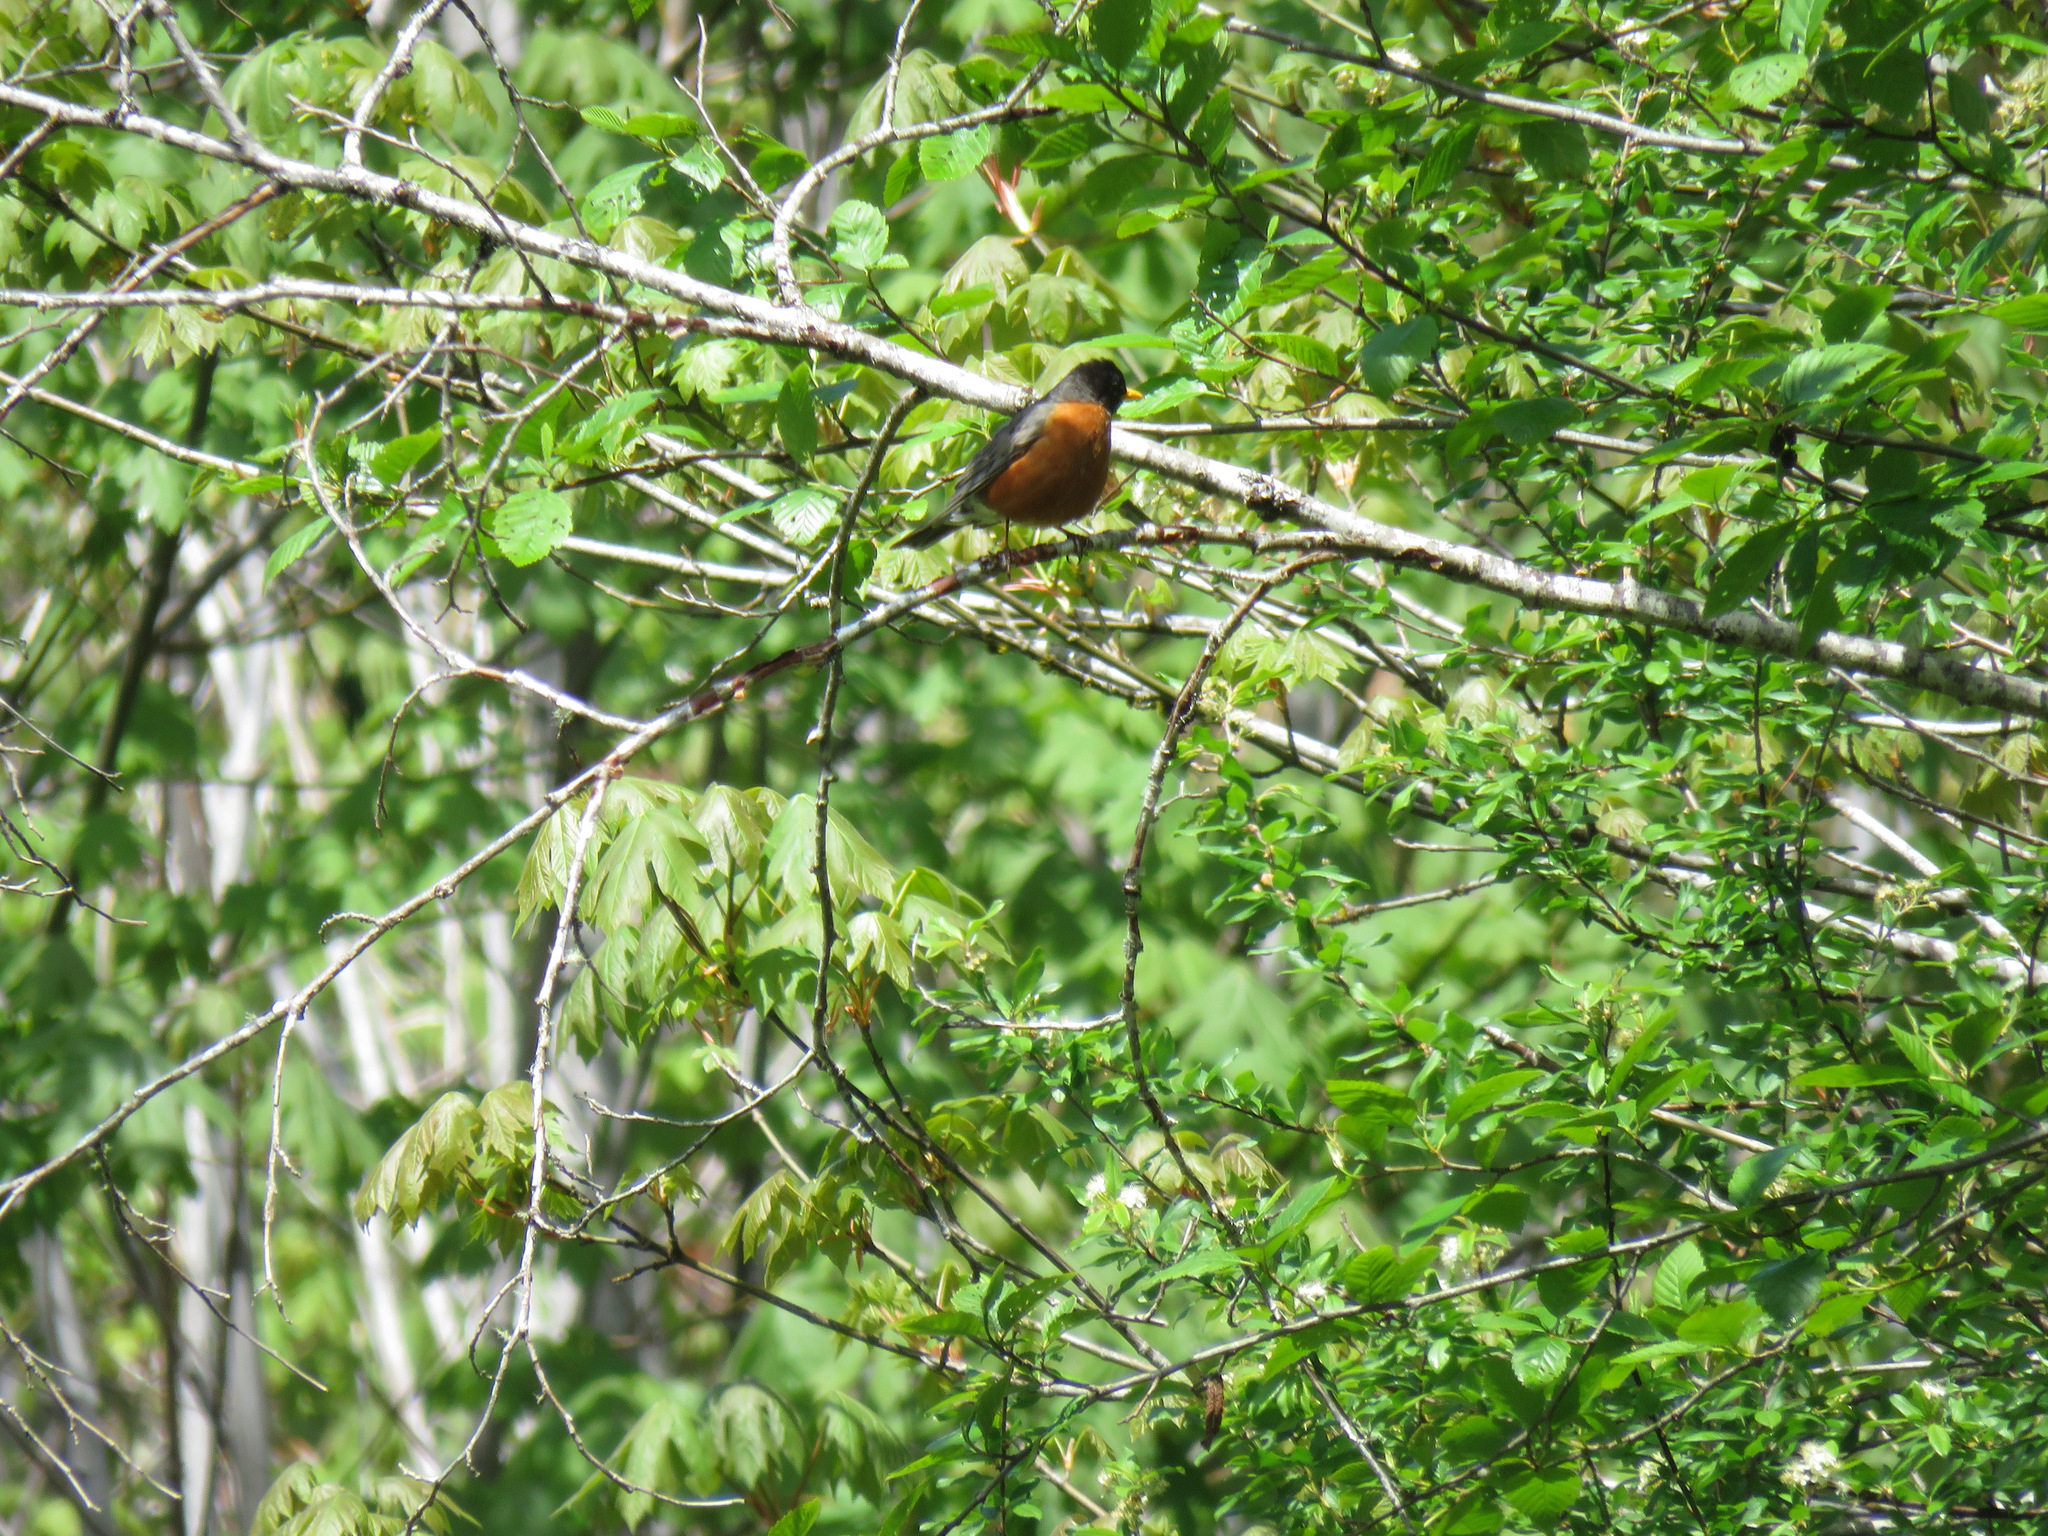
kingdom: Animalia
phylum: Chordata
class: Aves
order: Passeriformes
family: Turdidae
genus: Turdus
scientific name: Turdus migratorius
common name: American robin
